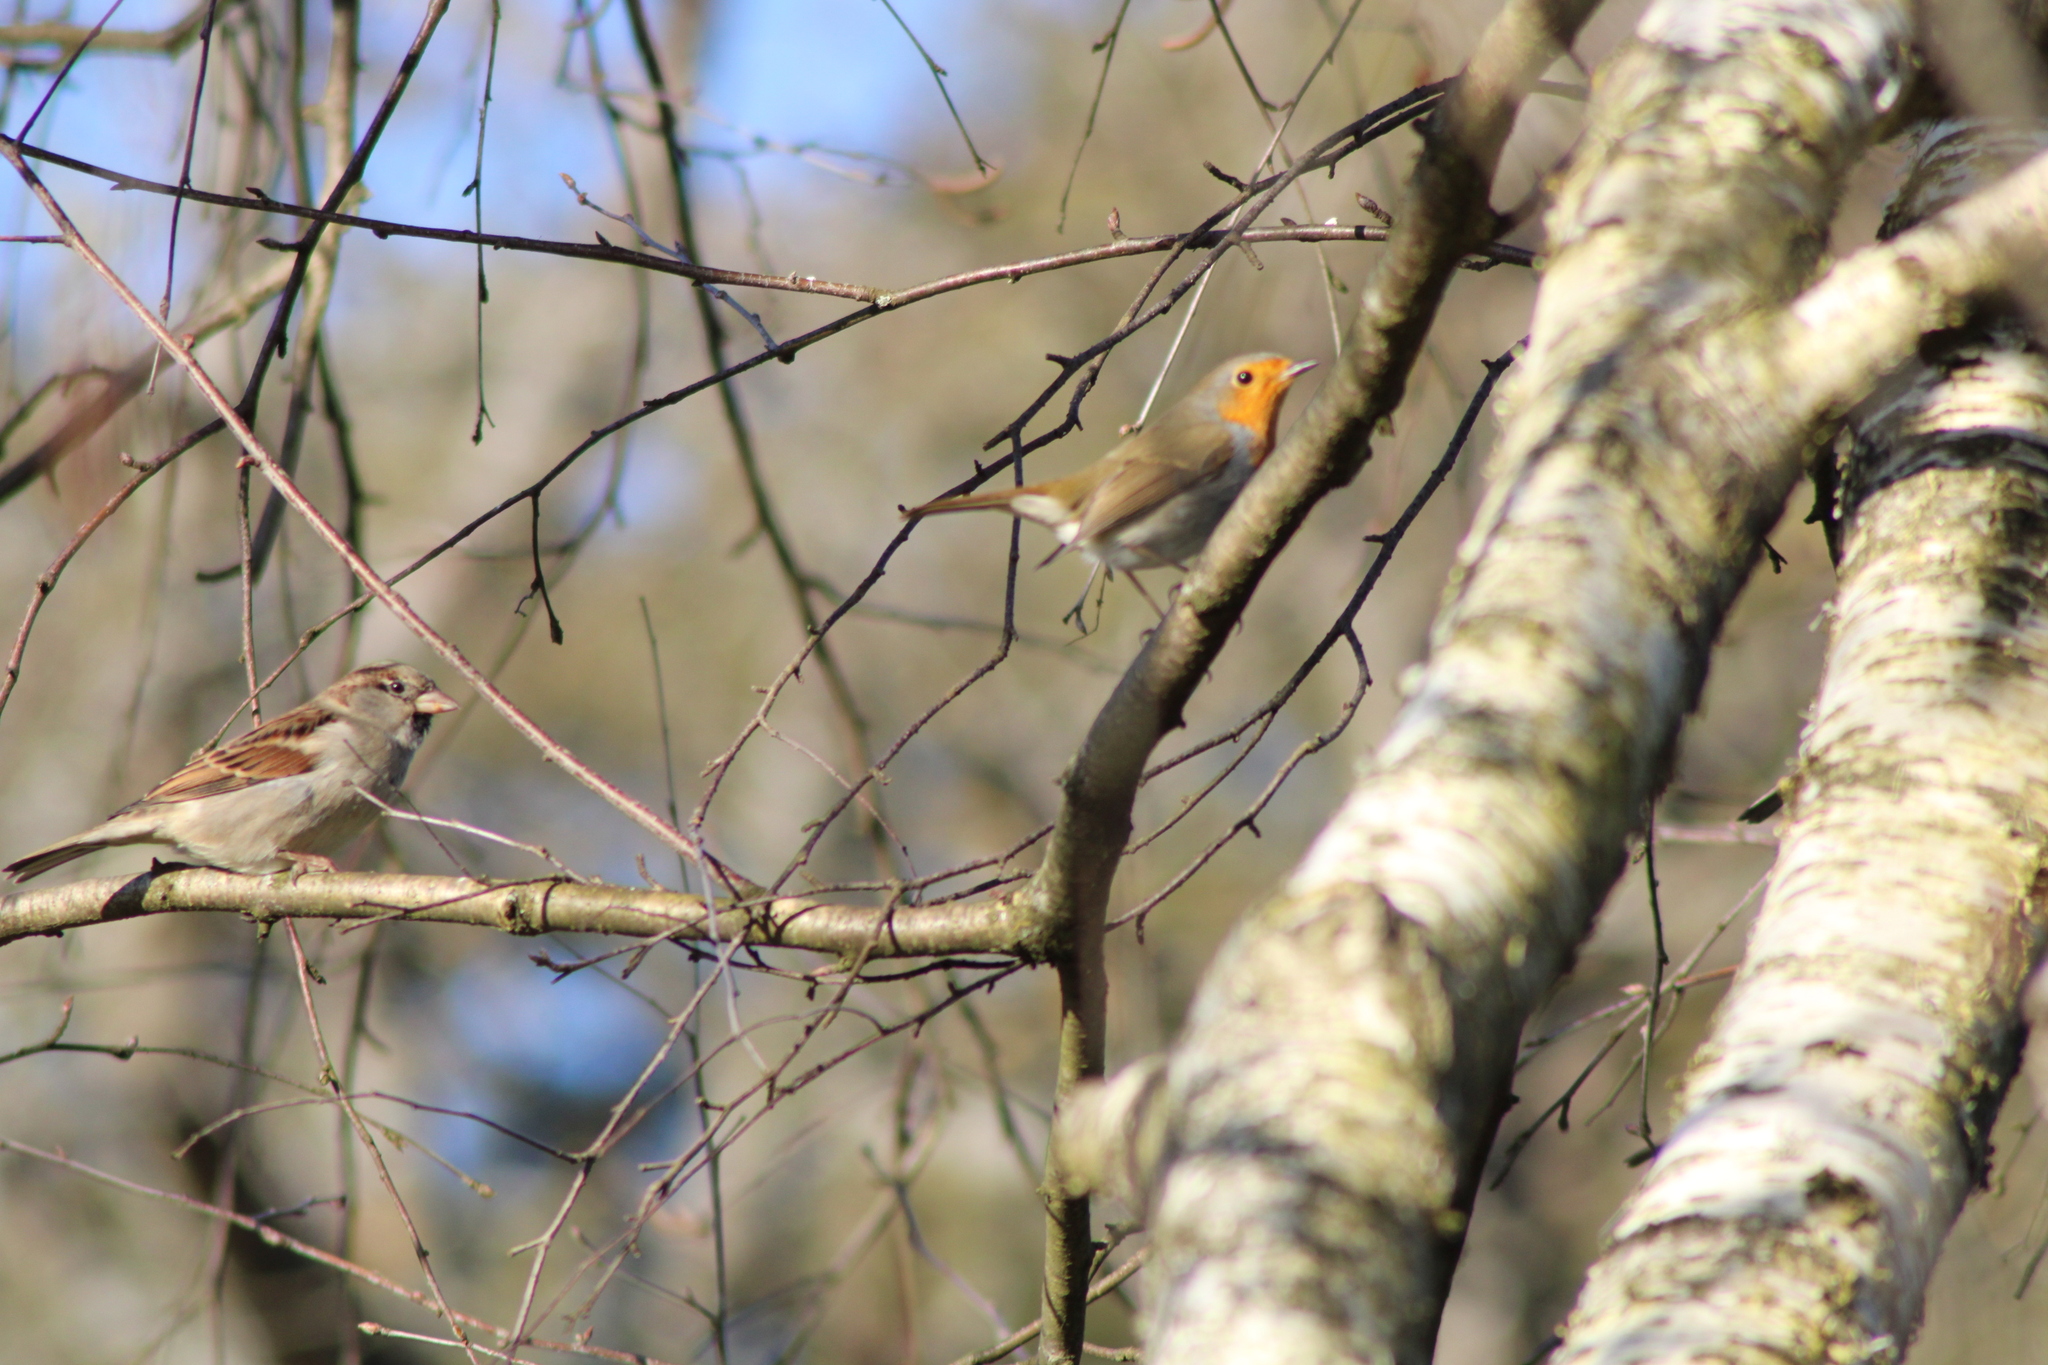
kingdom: Animalia
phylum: Chordata
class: Aves
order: Passeriformes
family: Muscicapidae
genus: Erithacus
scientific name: Erithacus rubecula
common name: European robin
